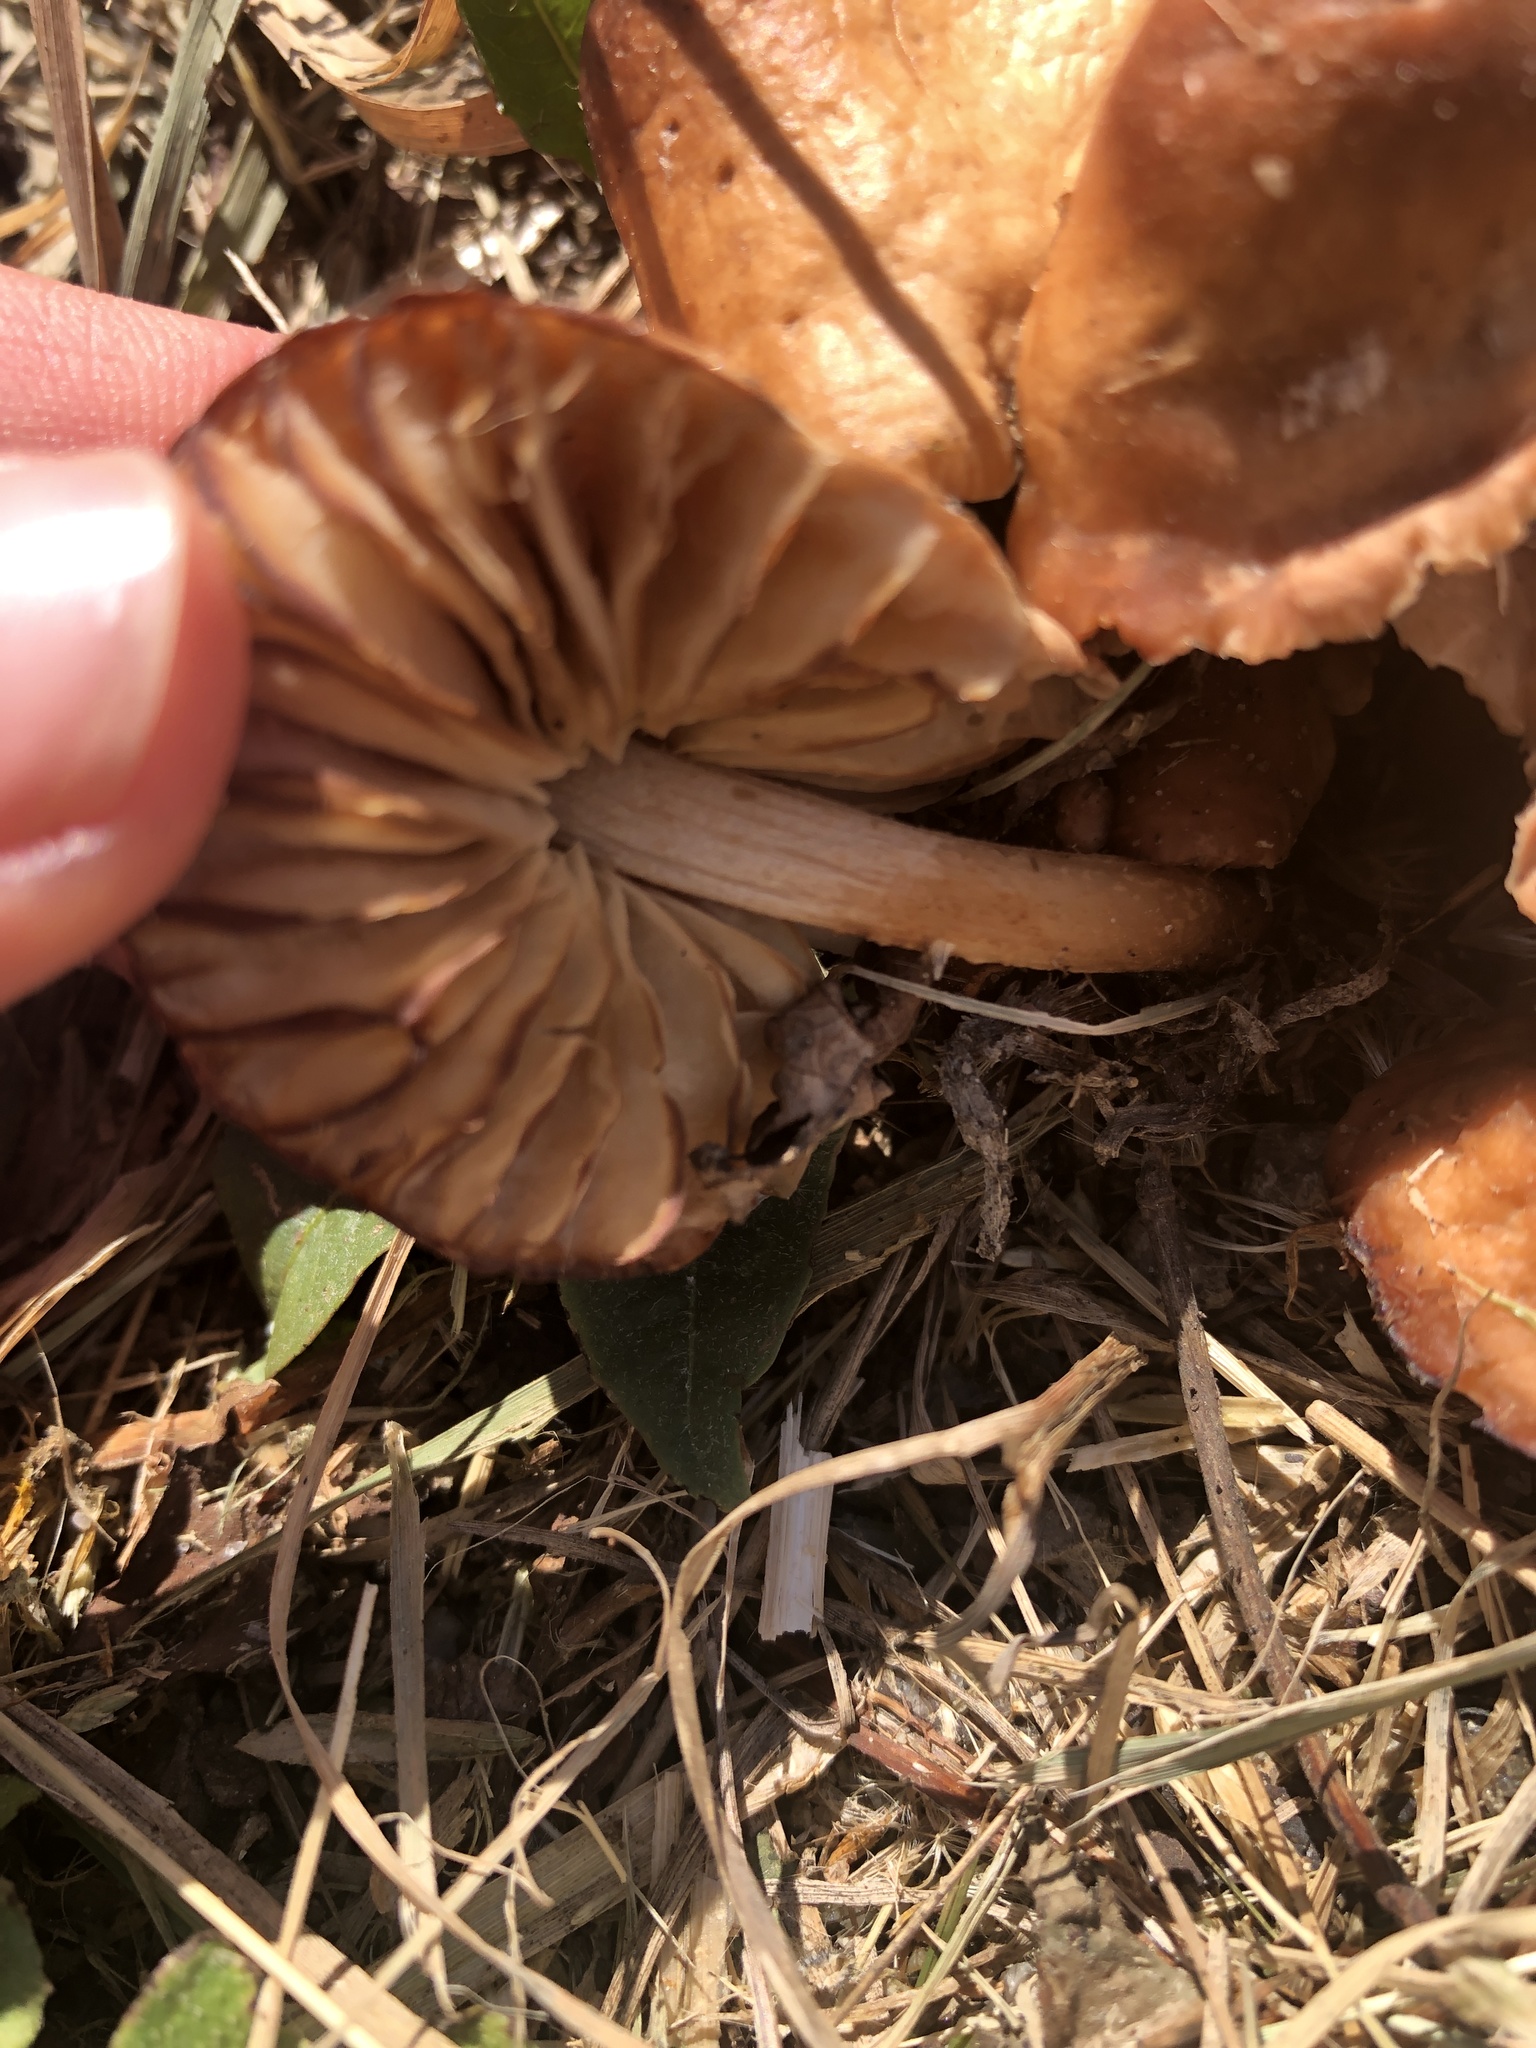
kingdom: Fungi
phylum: Basidiomycota
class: Agaricomycetes
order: Agaricales
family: Marasmiaceae
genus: Marasmius
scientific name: Marasmius oreades
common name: Fairy ring champignon
